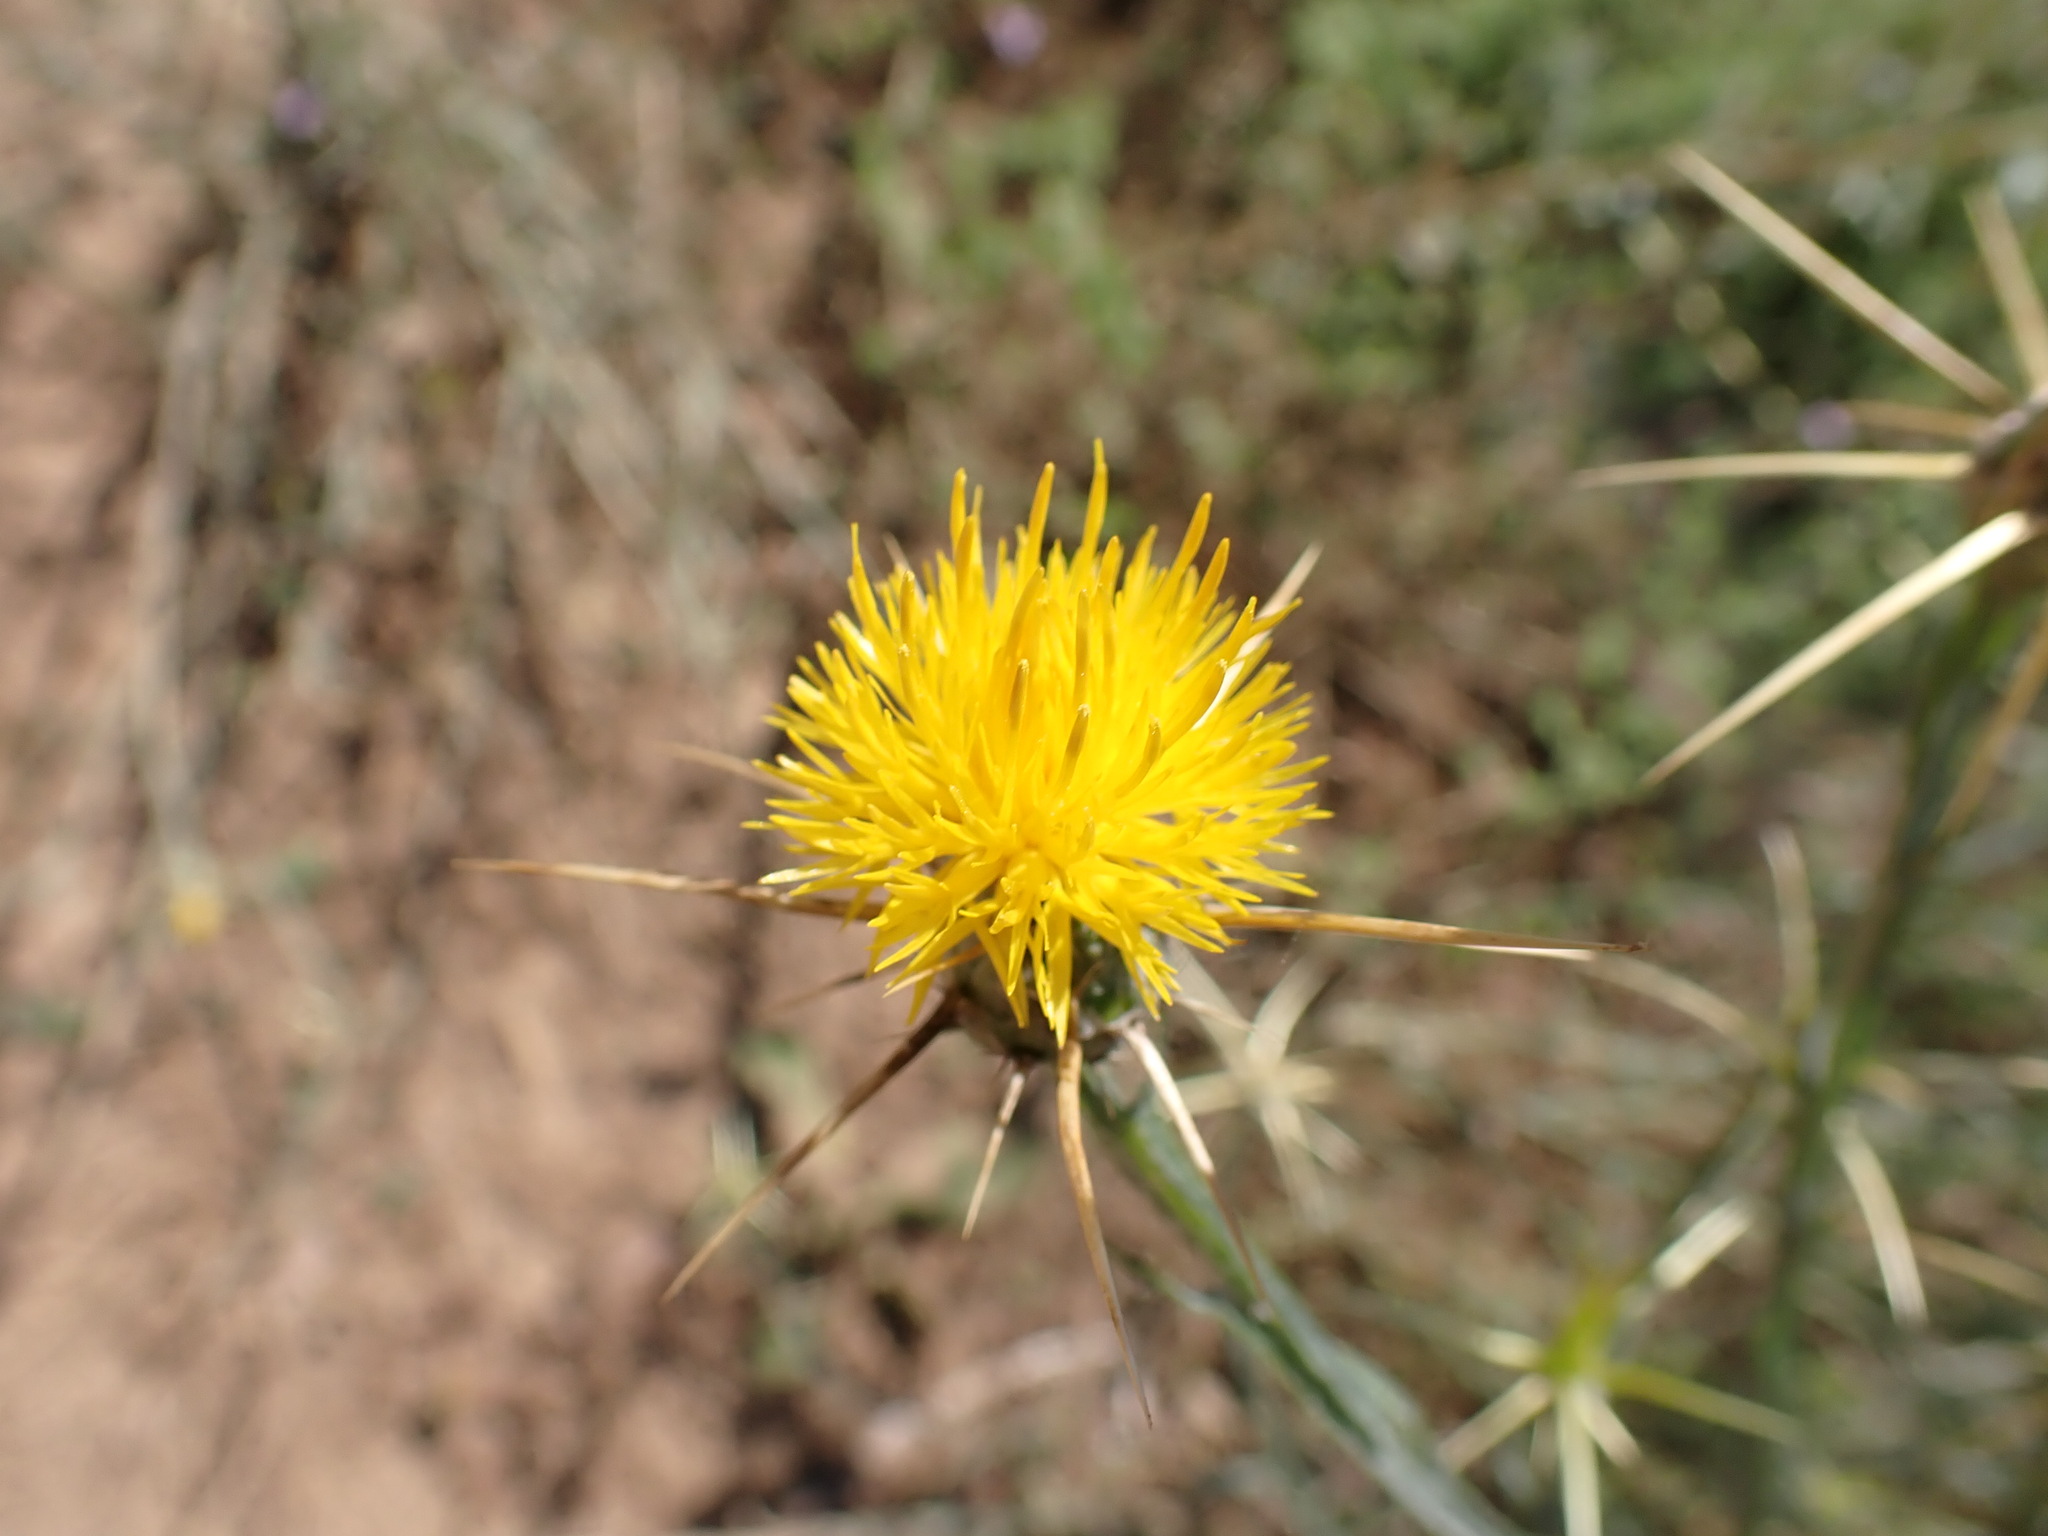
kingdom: Plantae
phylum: Tracheophyta
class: Magnoliopsida
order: Asterales
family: Asteraceae
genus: Centaurea
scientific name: Centaurea solstitialis
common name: Yellow star-thistle
